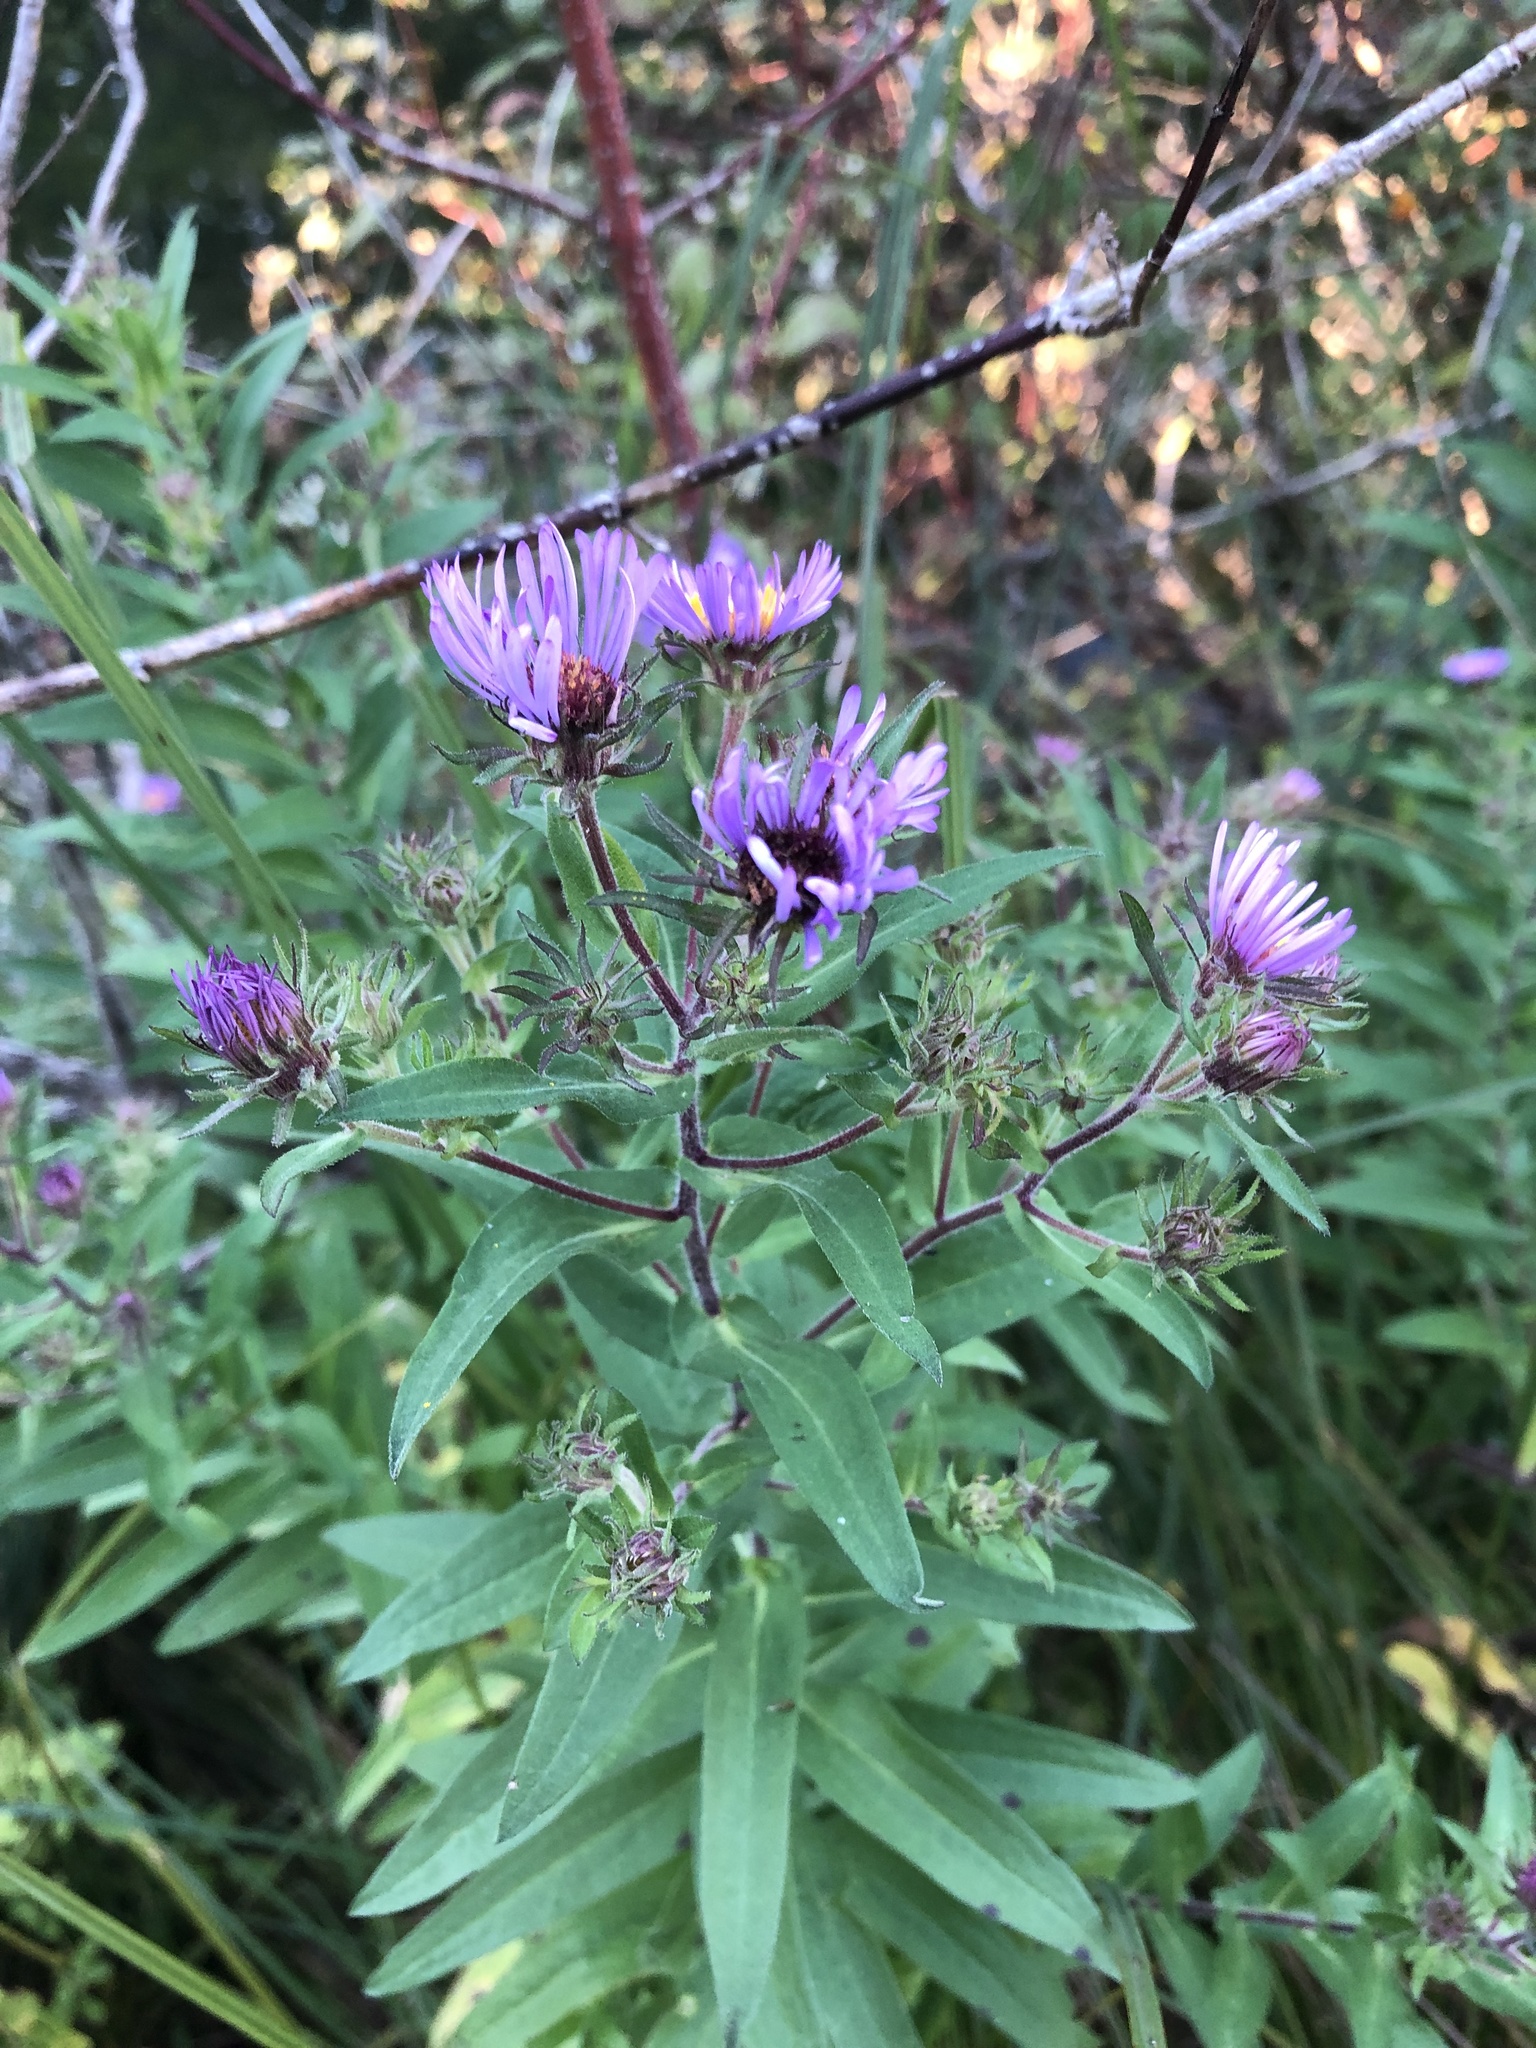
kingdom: Plantae
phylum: Tracheophyta
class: Magnoliopsida
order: Asterales
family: Asteraceae
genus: Symphyotrichum
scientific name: Symphyotrichum novae-angliae
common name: Michaelmas daisy
